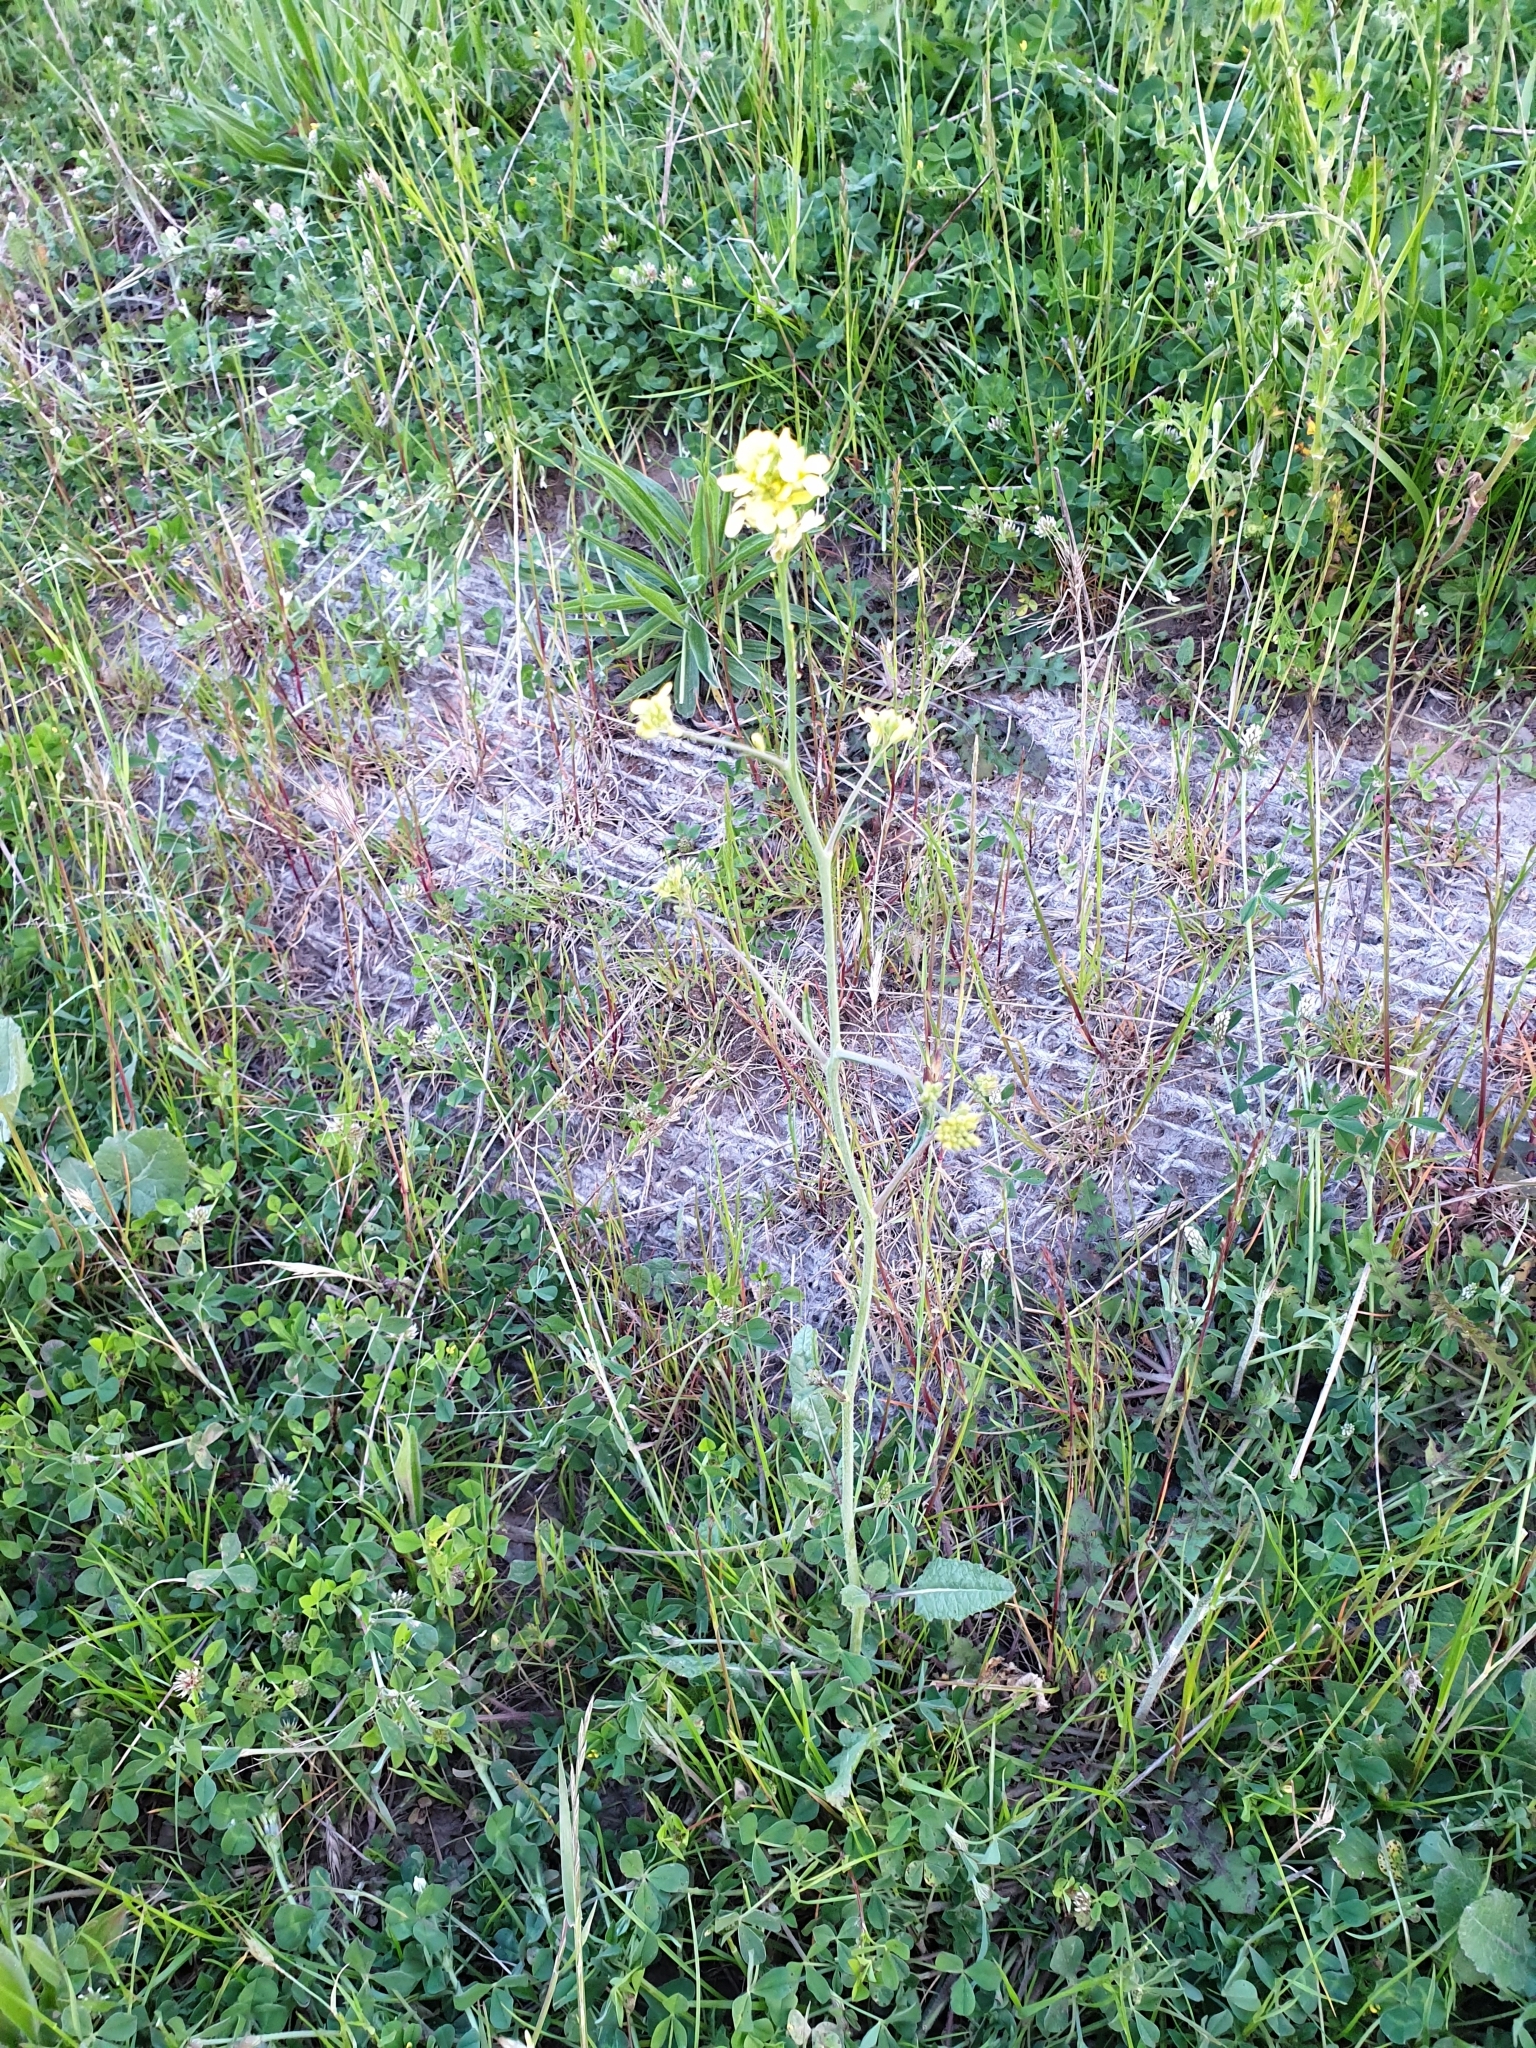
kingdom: Plantae
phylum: Tracheophyta
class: Magnoliopsida
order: Brassicales
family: Brassicaceae
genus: Hirschfeldia
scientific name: Hirschfeldia incana
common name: Hoary mustard
